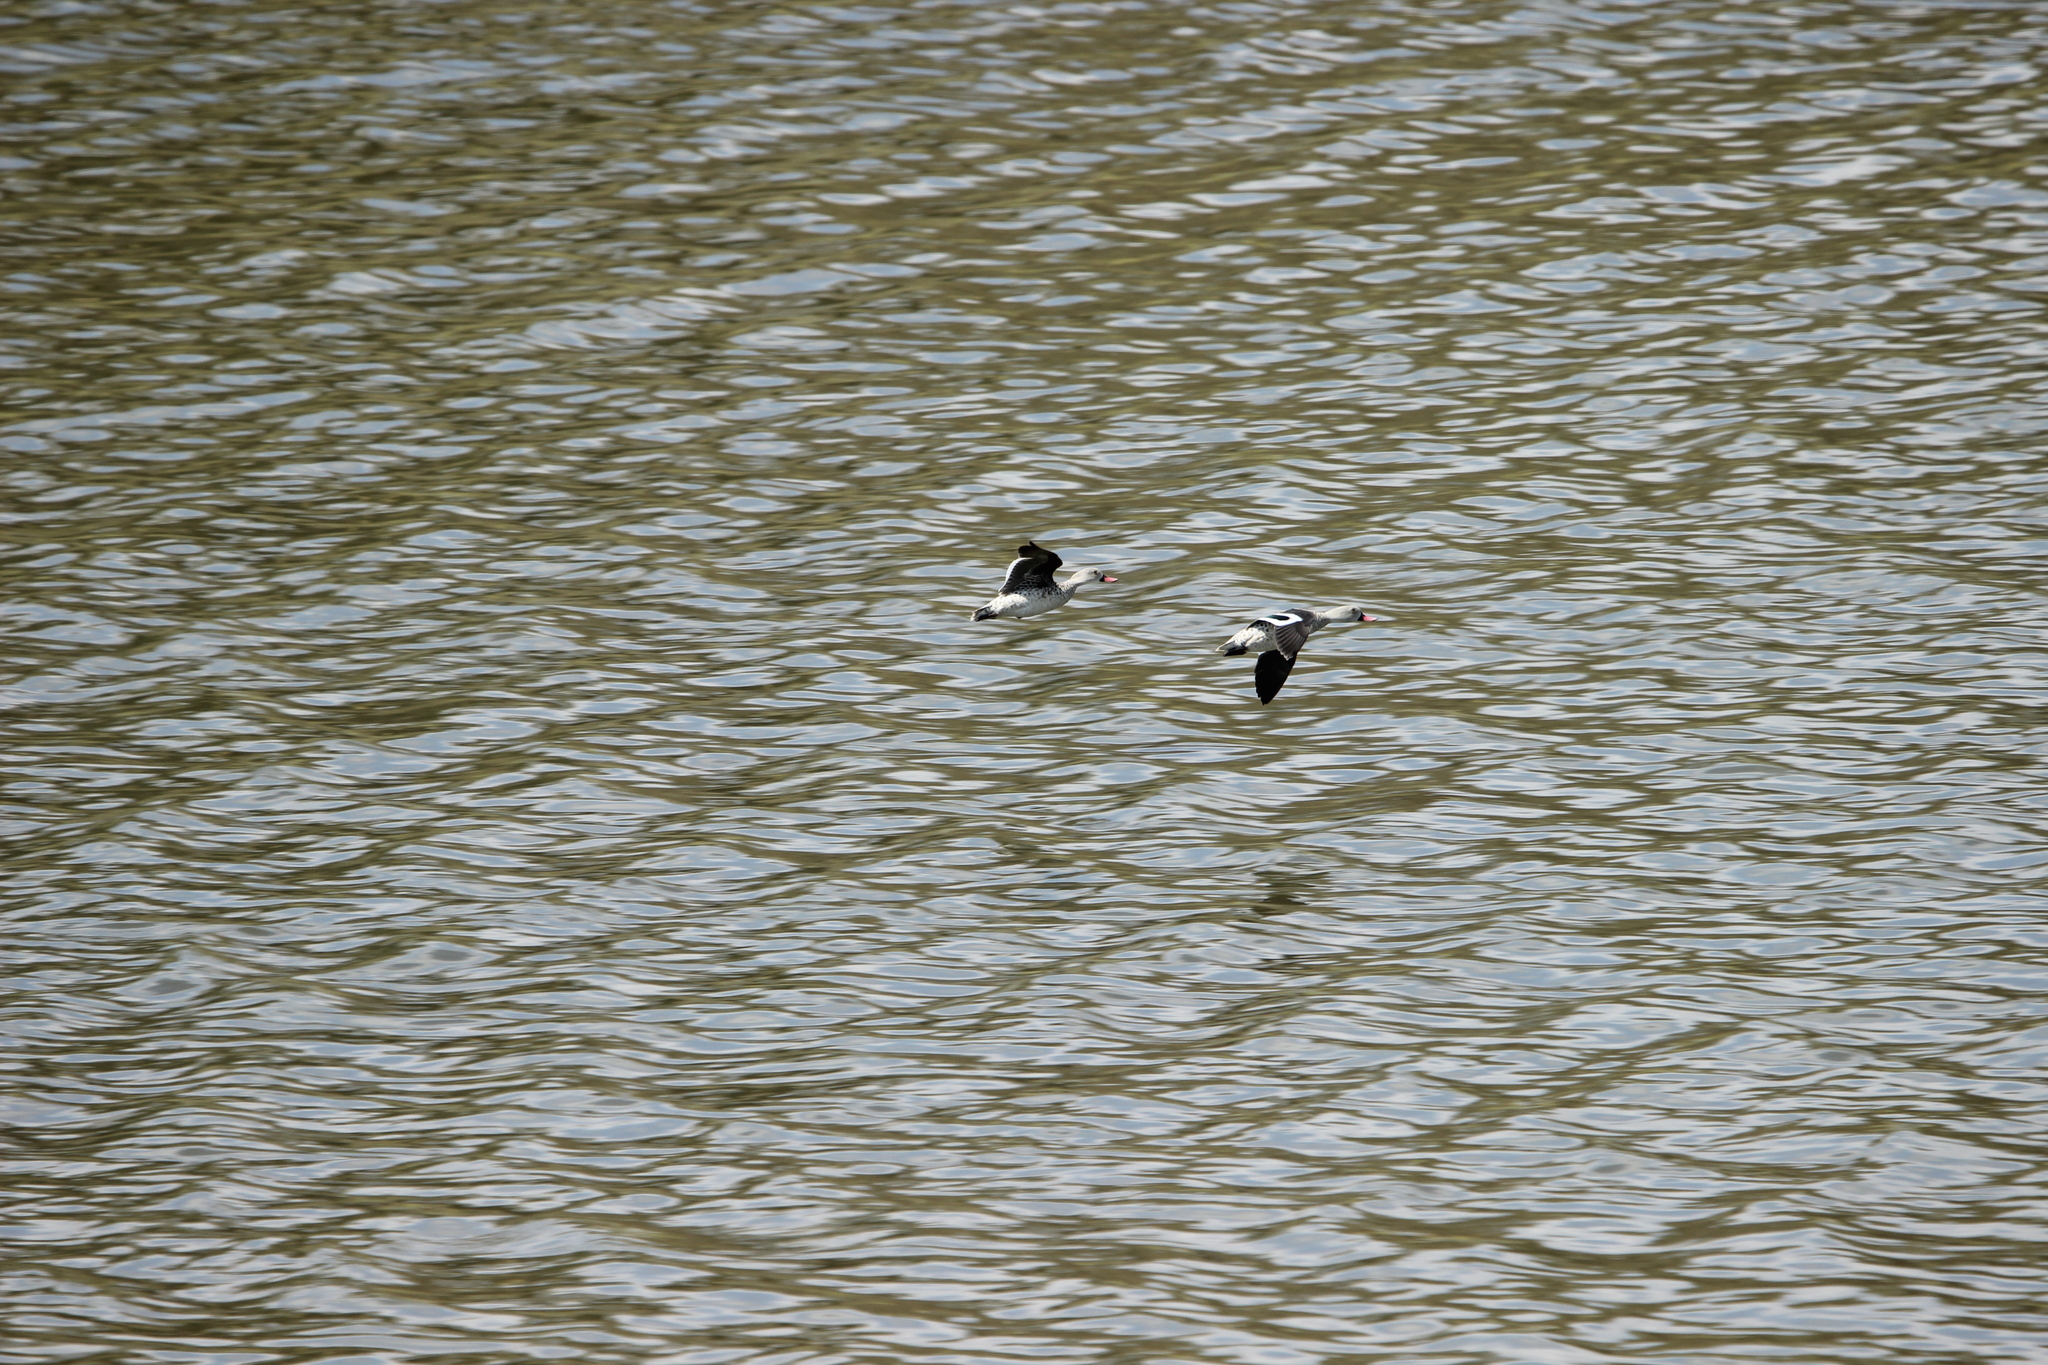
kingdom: Animalia
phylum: Chordata
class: Aves
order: Anseriformes
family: Anatidae
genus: Anas
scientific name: Anas capensis
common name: Cape teal
